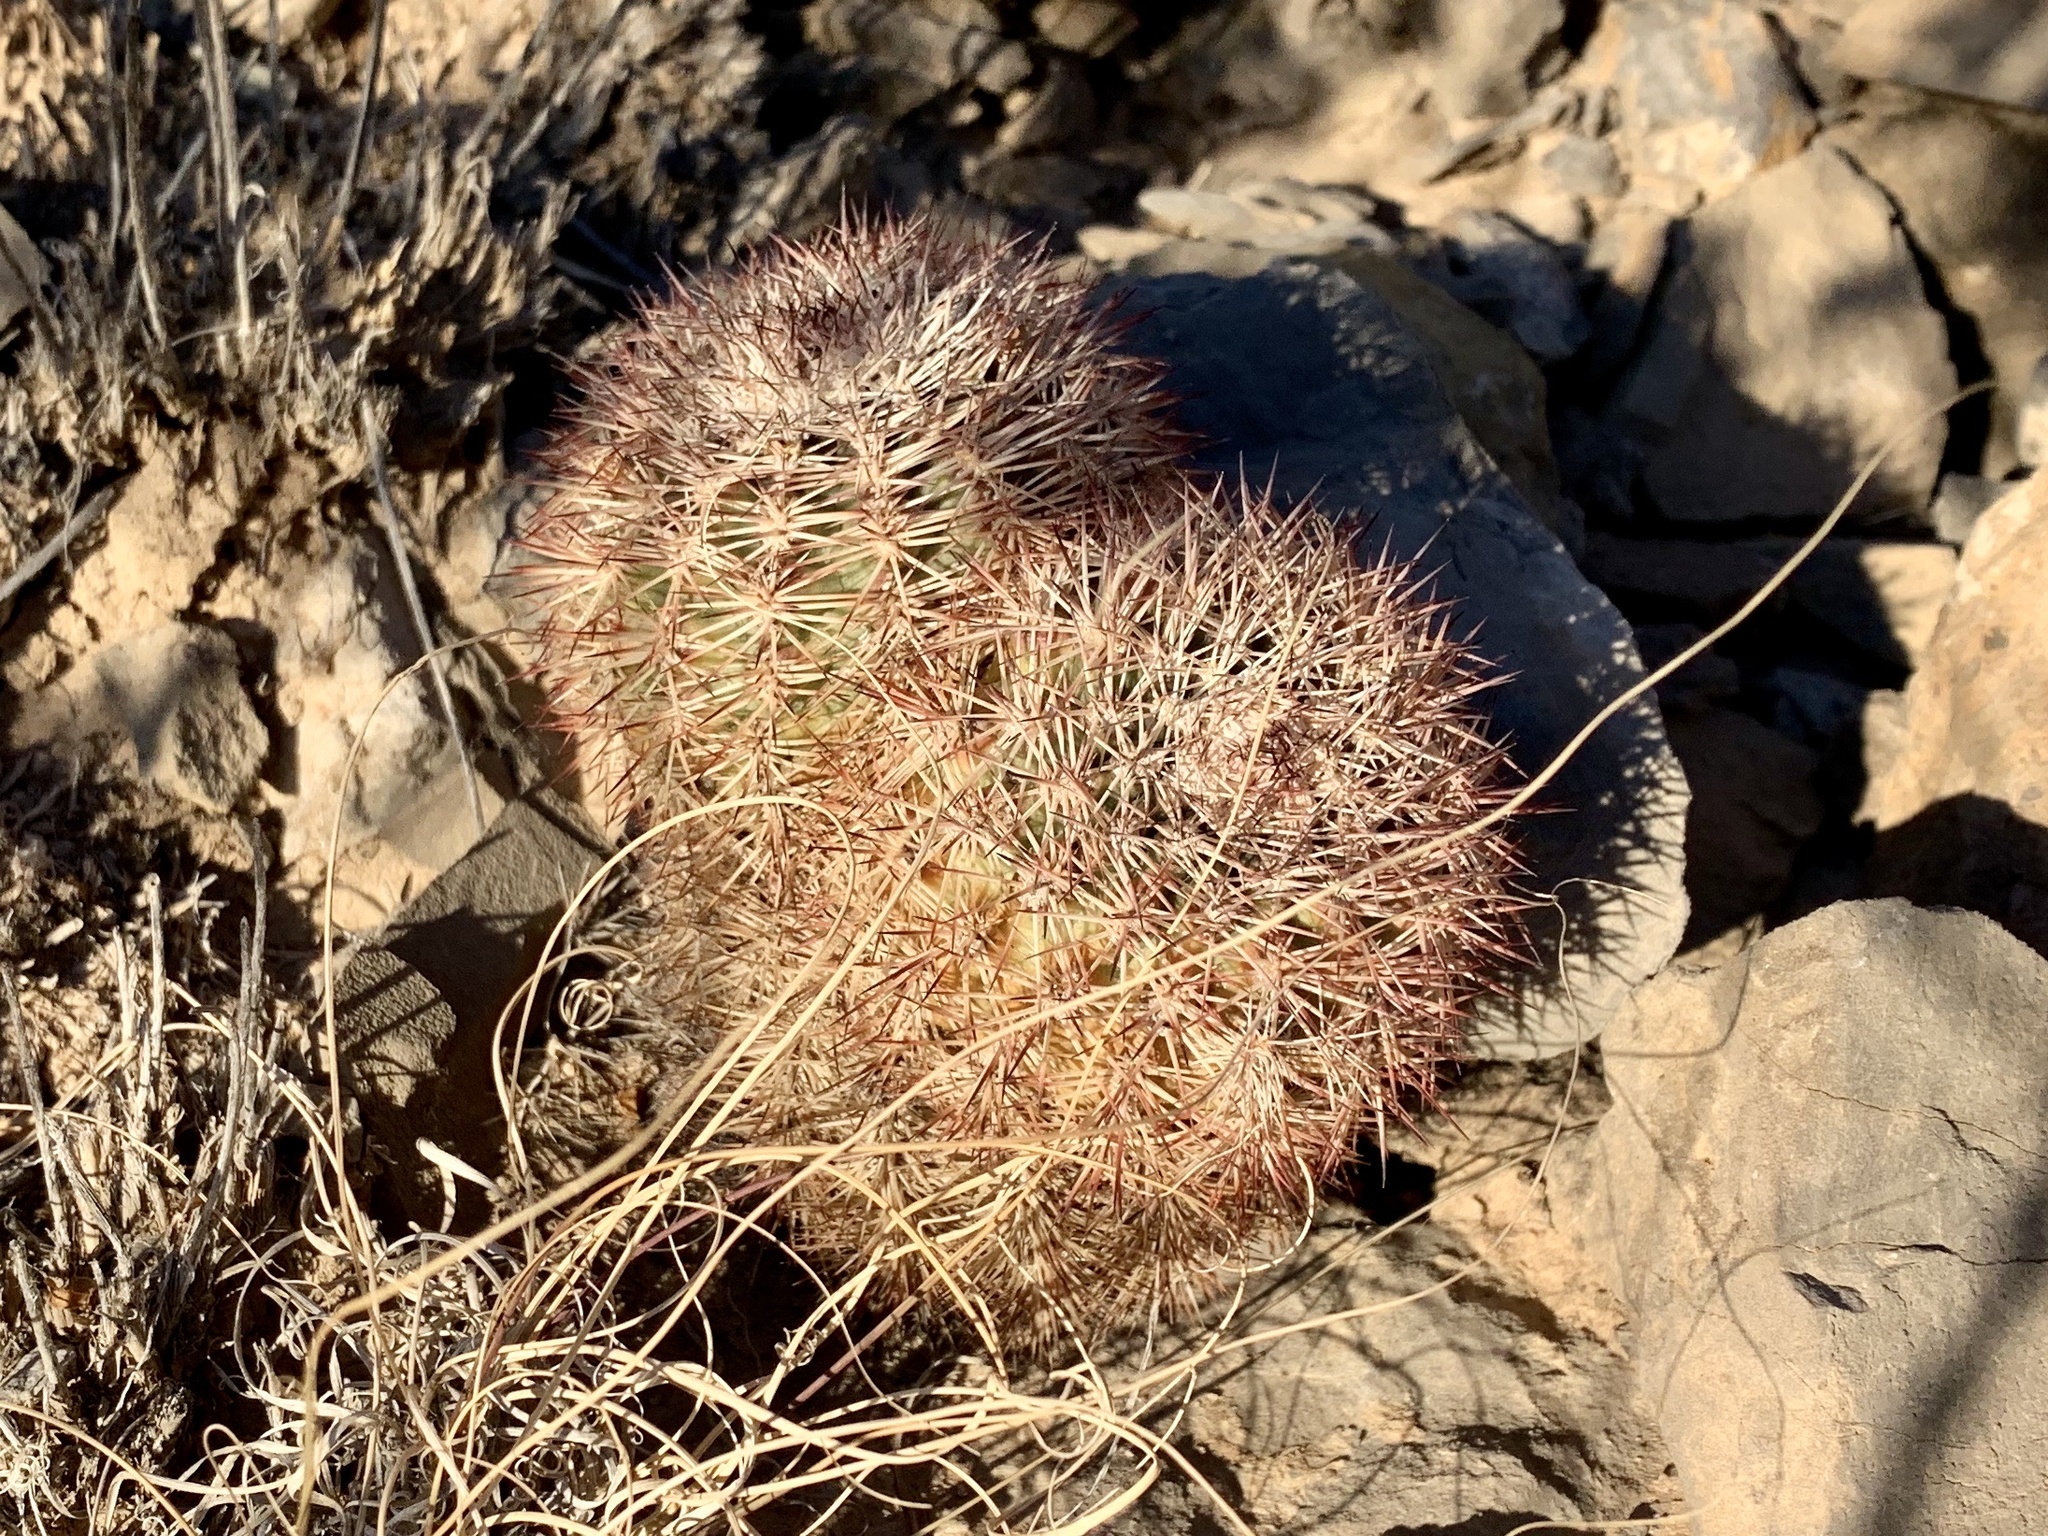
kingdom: Plantae
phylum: Tracheophyta
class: Magnoliopsida
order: Caryophyllales
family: Cactaceae
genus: Echinocereus
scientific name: Echinocereus dasyacanthus
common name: Spiny hedgehog cactus
